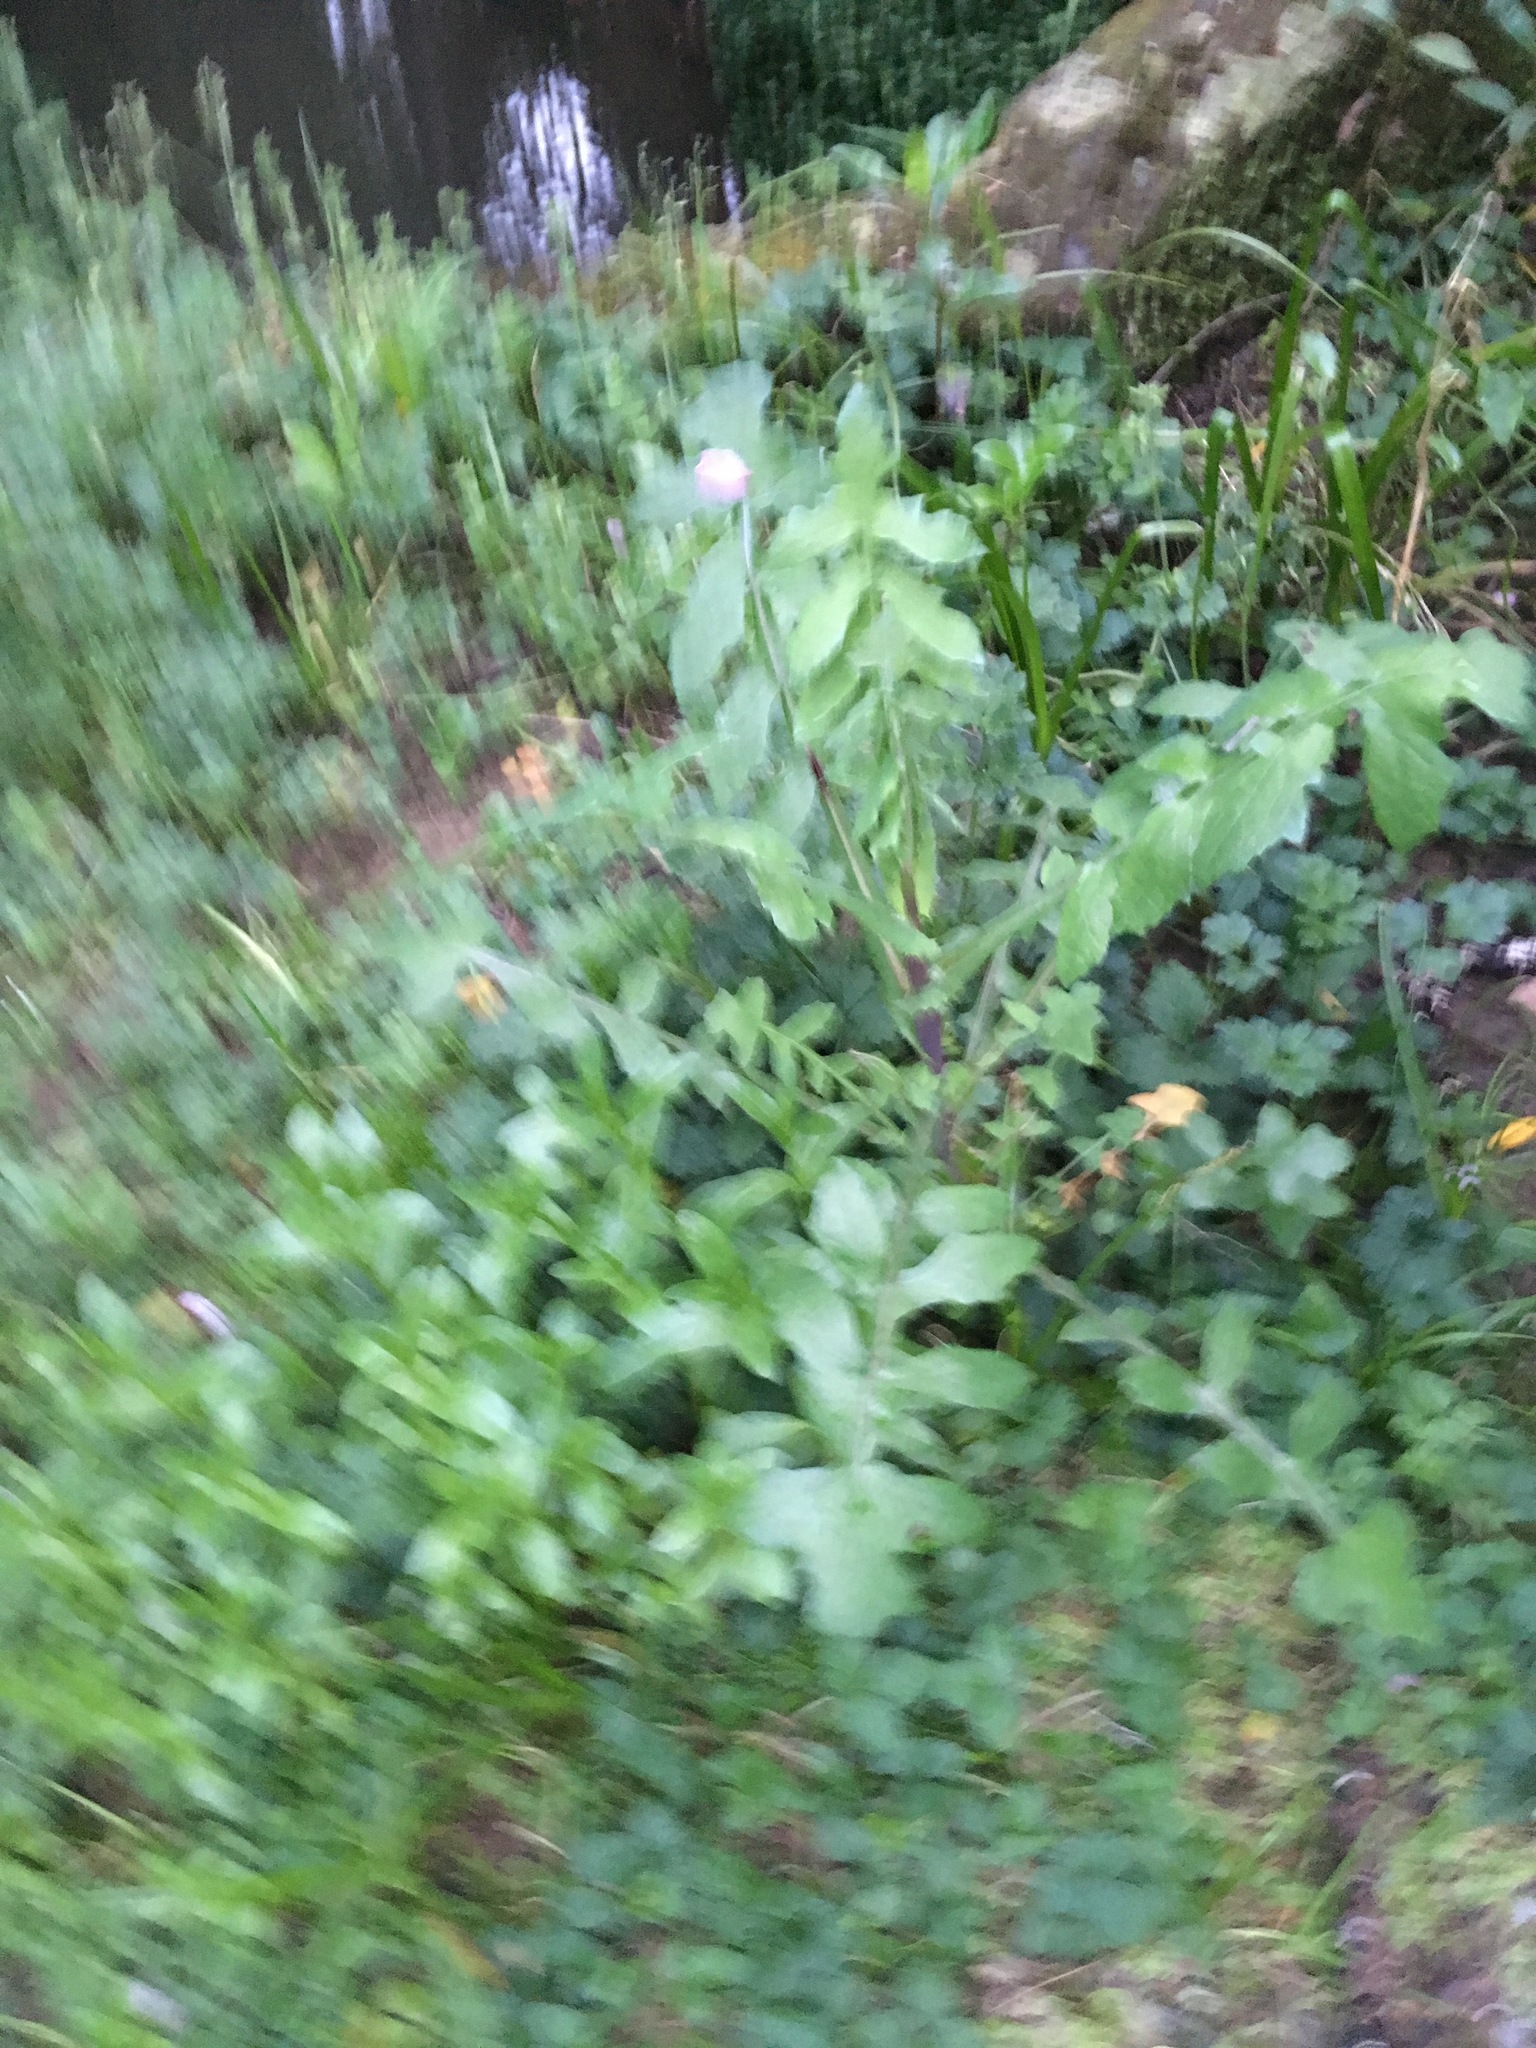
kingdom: Plantae
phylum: Tracheophyta
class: Magnoliopsida
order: Asterales
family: Asteraceae
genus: Sonchus
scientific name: Sonchus oleraceus
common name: Common sowthistle
